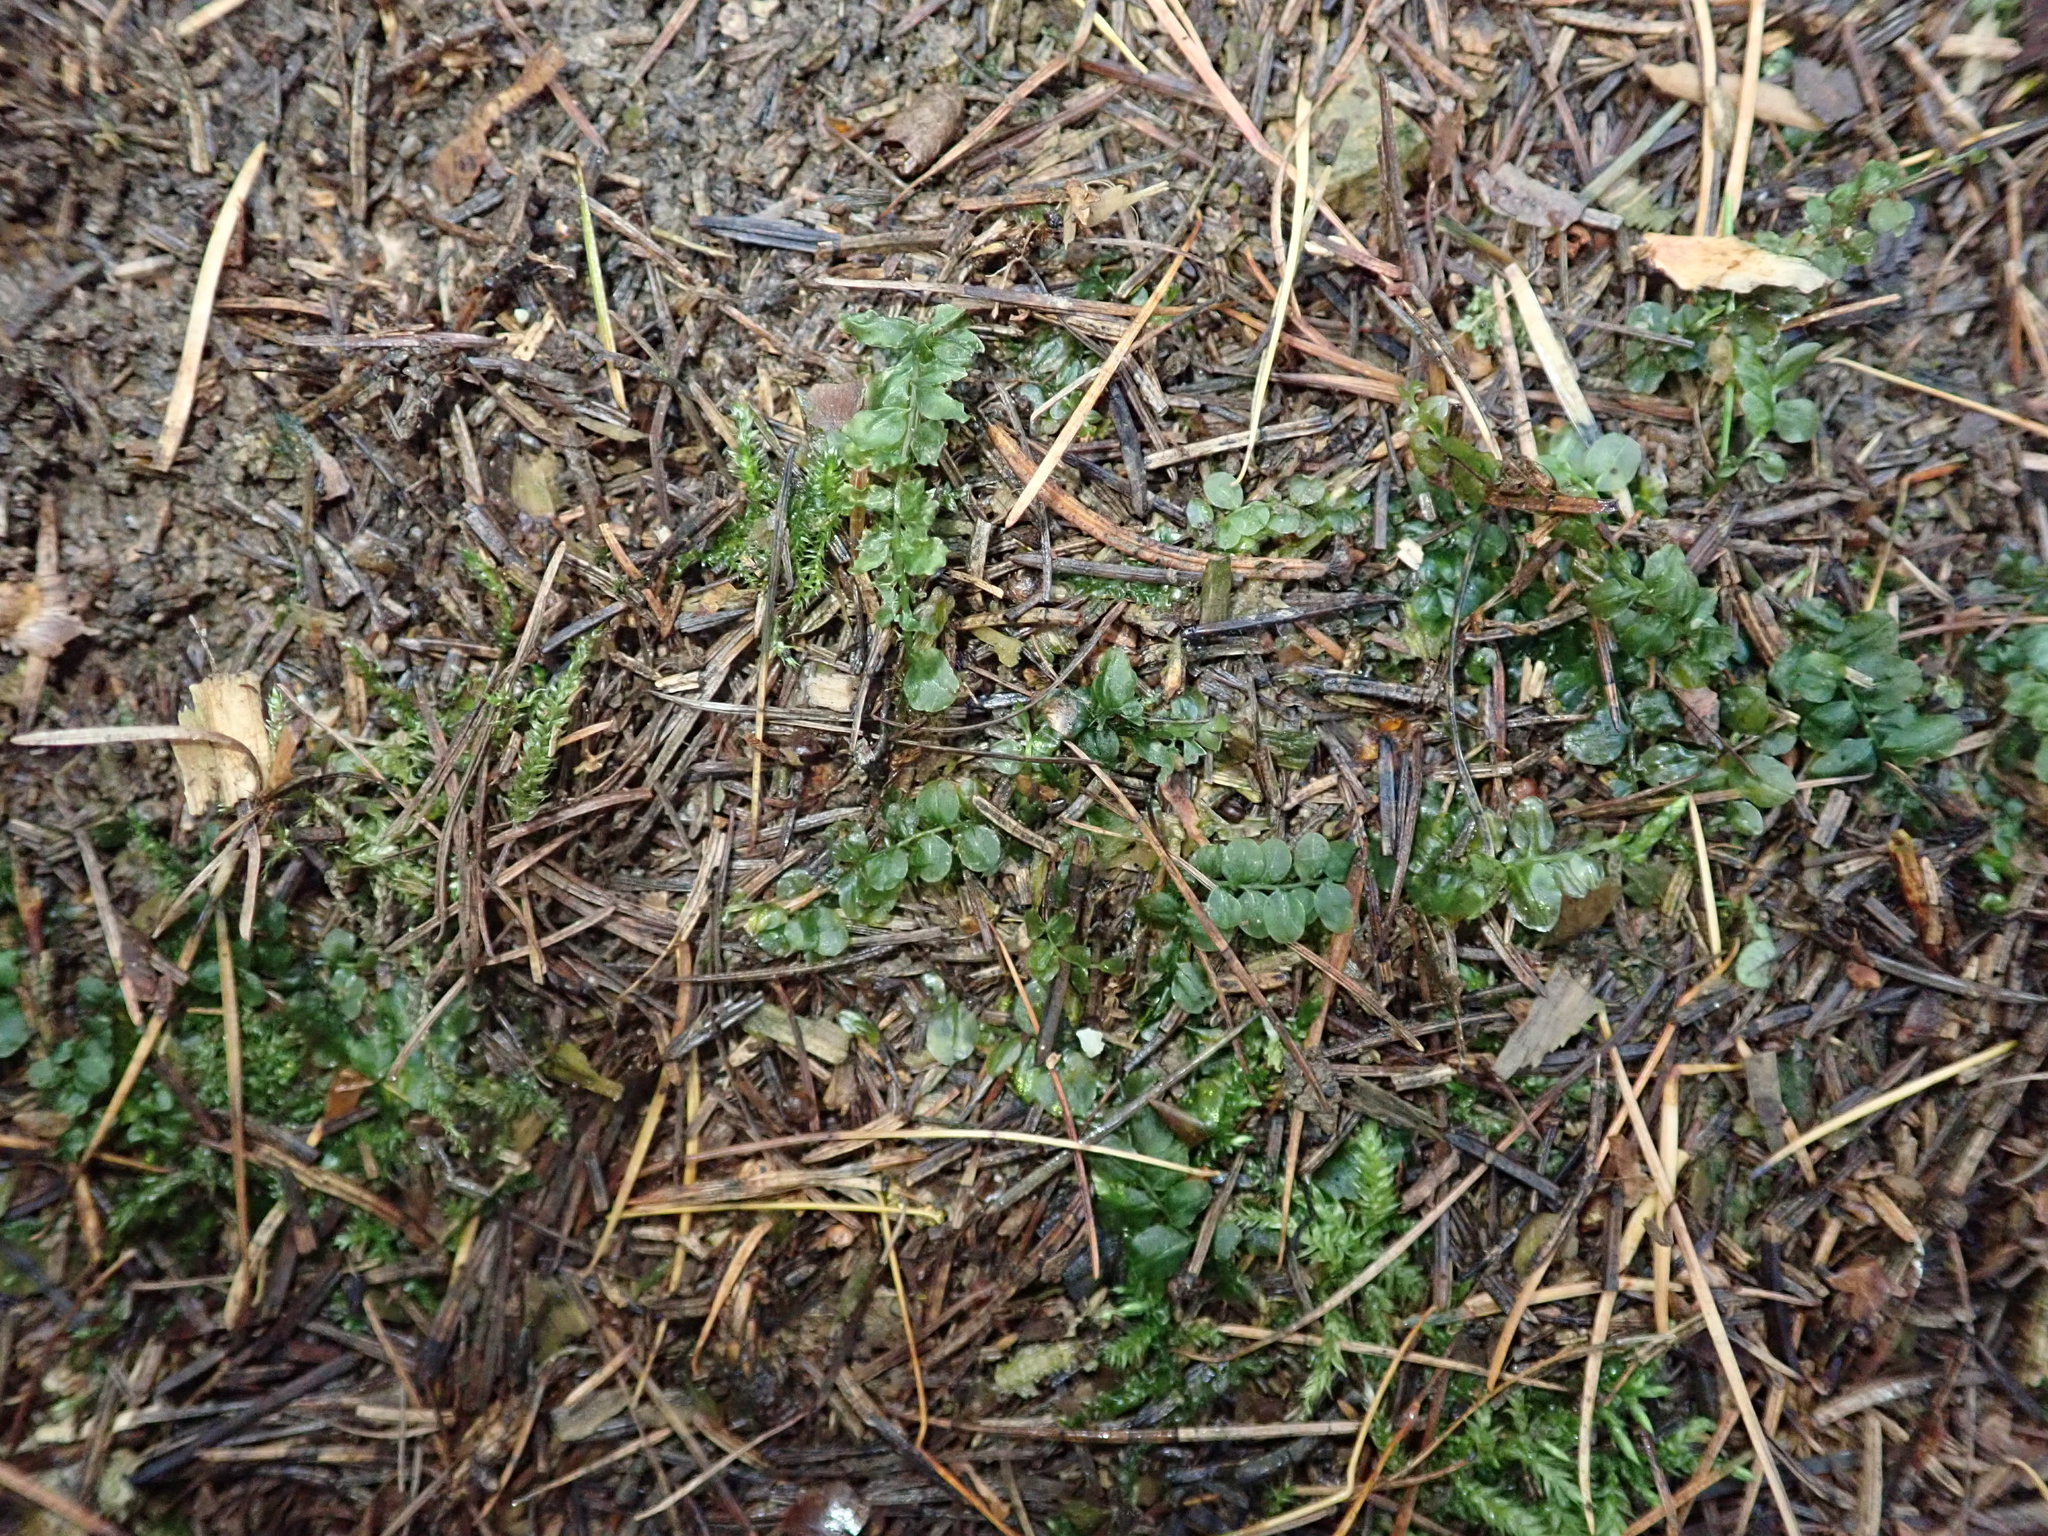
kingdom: Plantae
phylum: Bryophyta
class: Bryopsida
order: Bryales
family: Mniaceae
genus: Plagiomnium
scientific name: Plagiomnium affine
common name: Many-fruited thyme-moss
